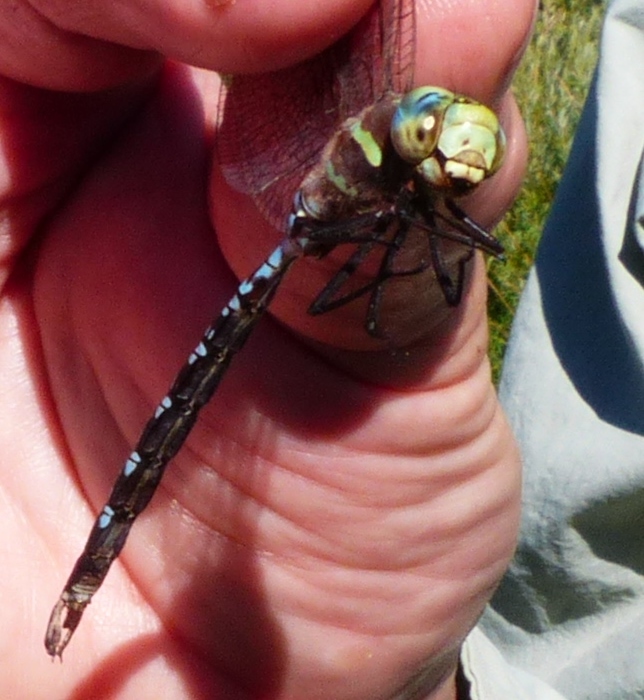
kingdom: Animalia
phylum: Arthropoda
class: Insecta
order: Odonata
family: Aeshnidae
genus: Aeshna
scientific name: Aeshna constricta
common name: Lance-tipped darner
